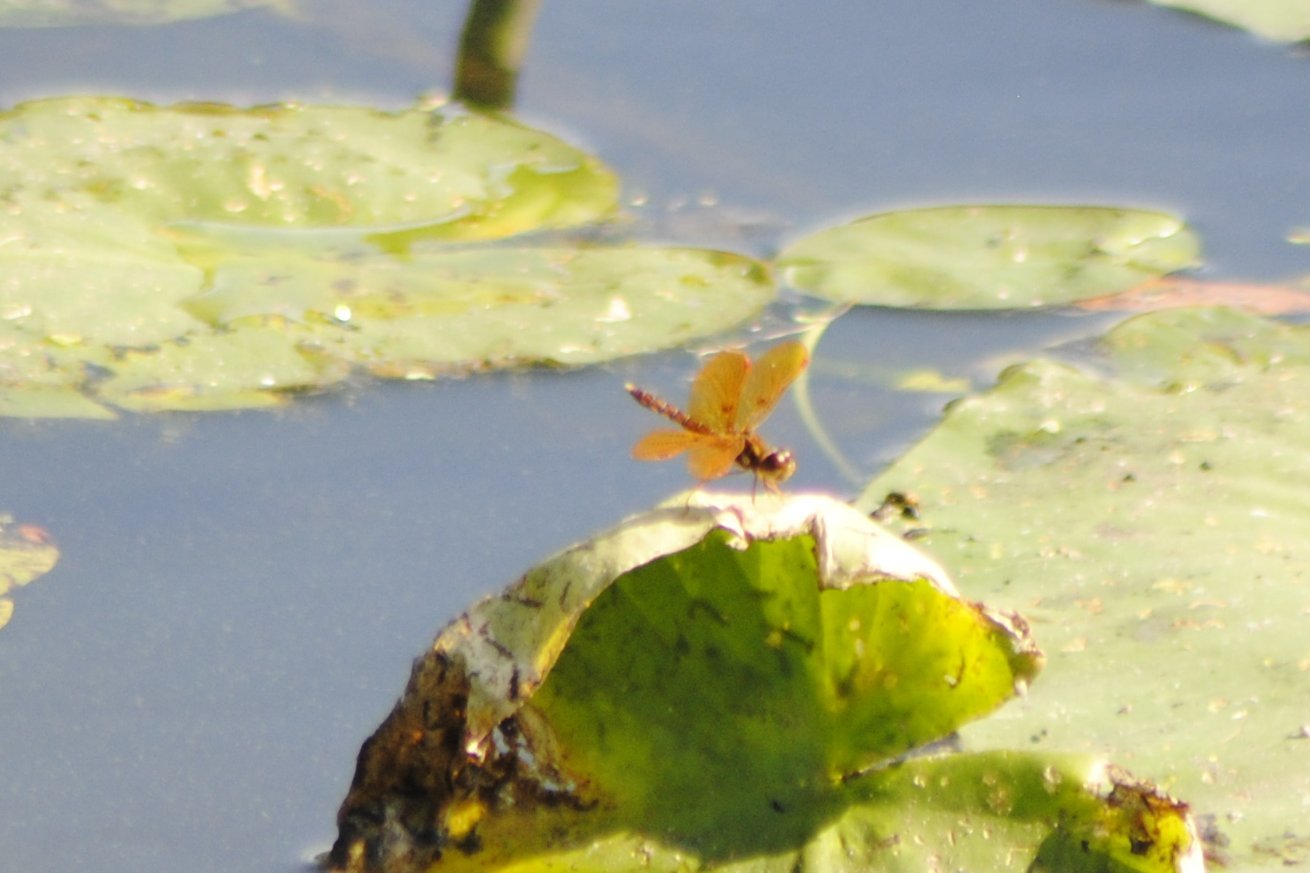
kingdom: Animalia
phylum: Arthropoda
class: Insecta
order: Odonata
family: Libellulidae
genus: Perithemis
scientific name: Perithemis tenera
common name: Eastern amberwing
